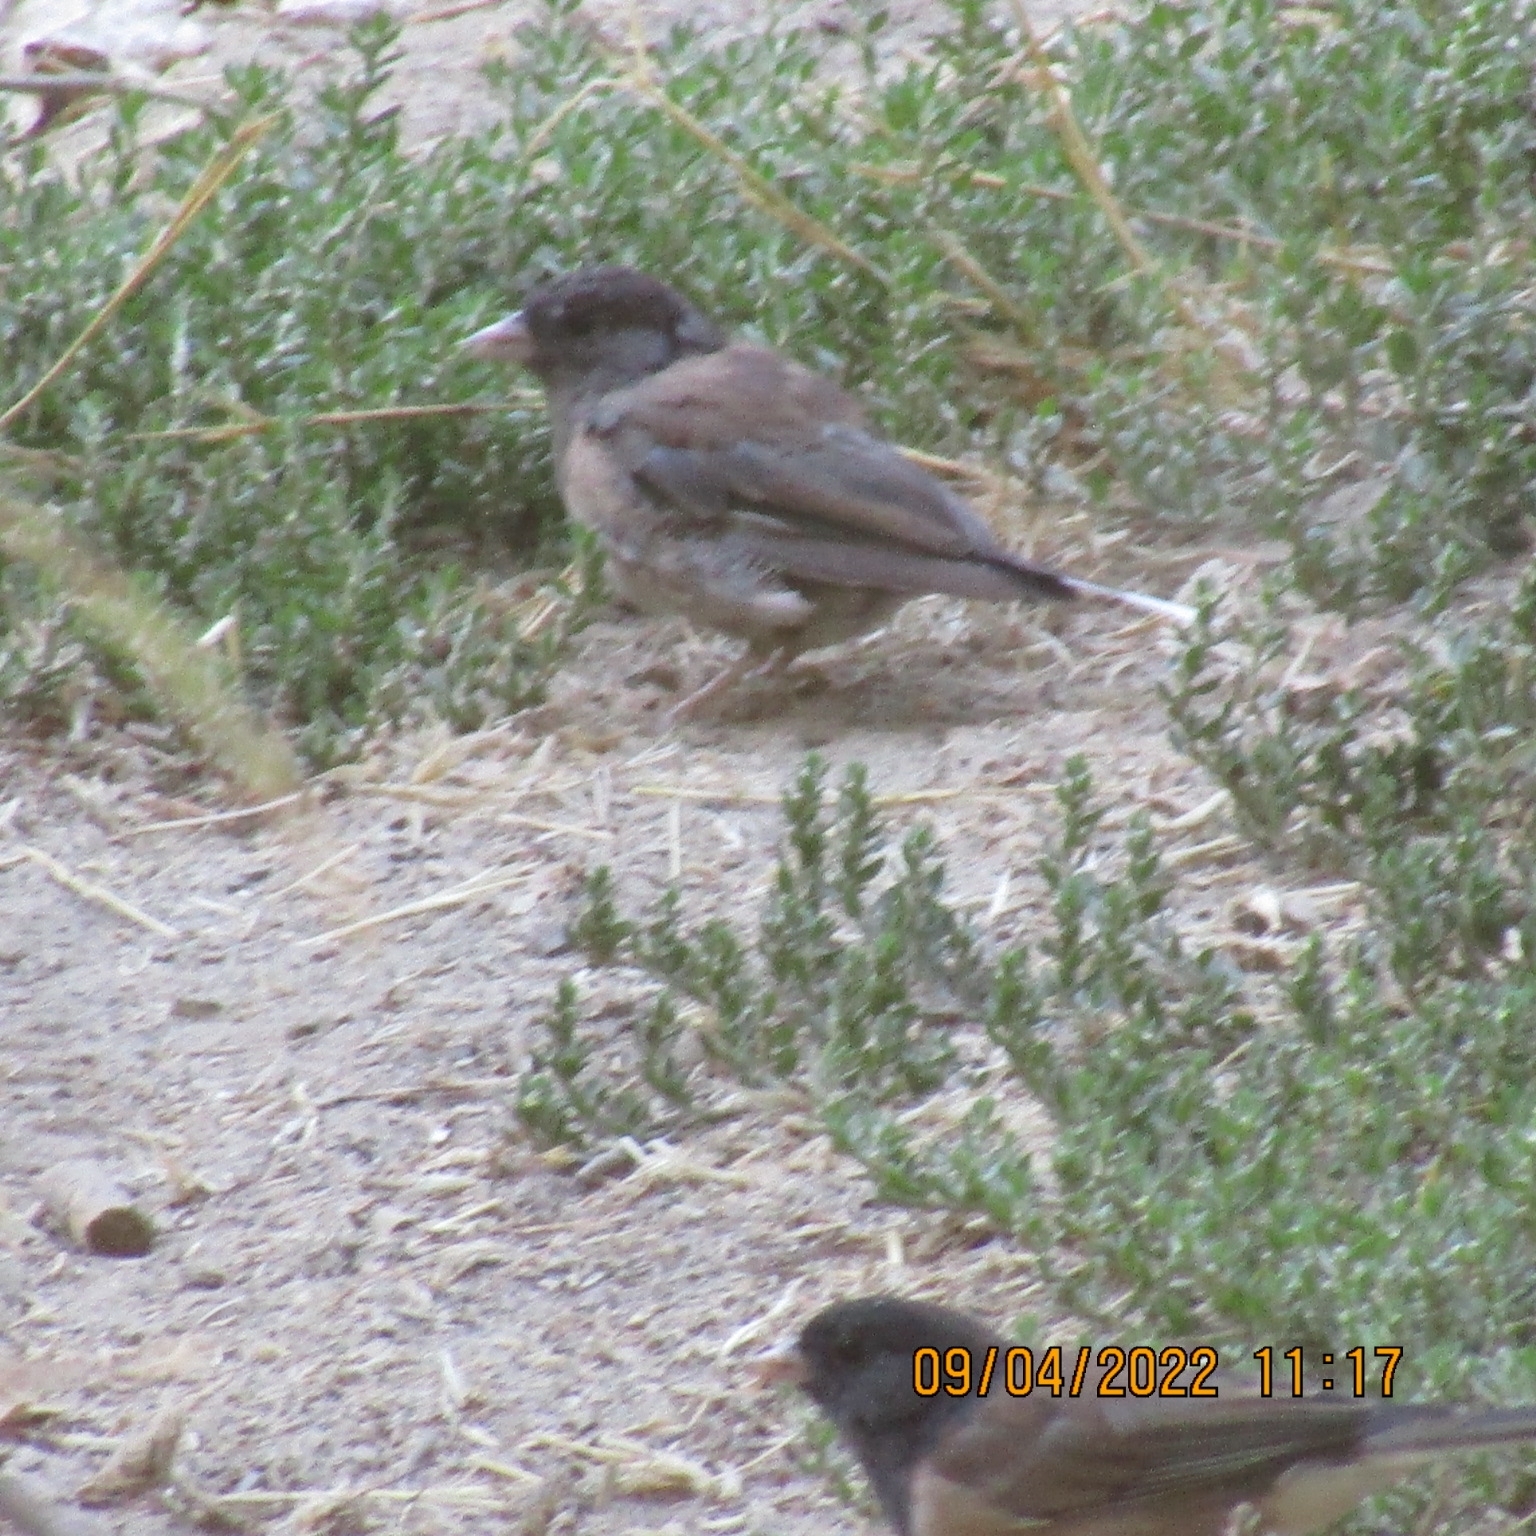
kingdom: Animalia
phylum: Chordata
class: Aves
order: Passeriformes
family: Passerellidae
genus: Junco
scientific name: Junco hyemalis
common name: Dark-eyed junco
